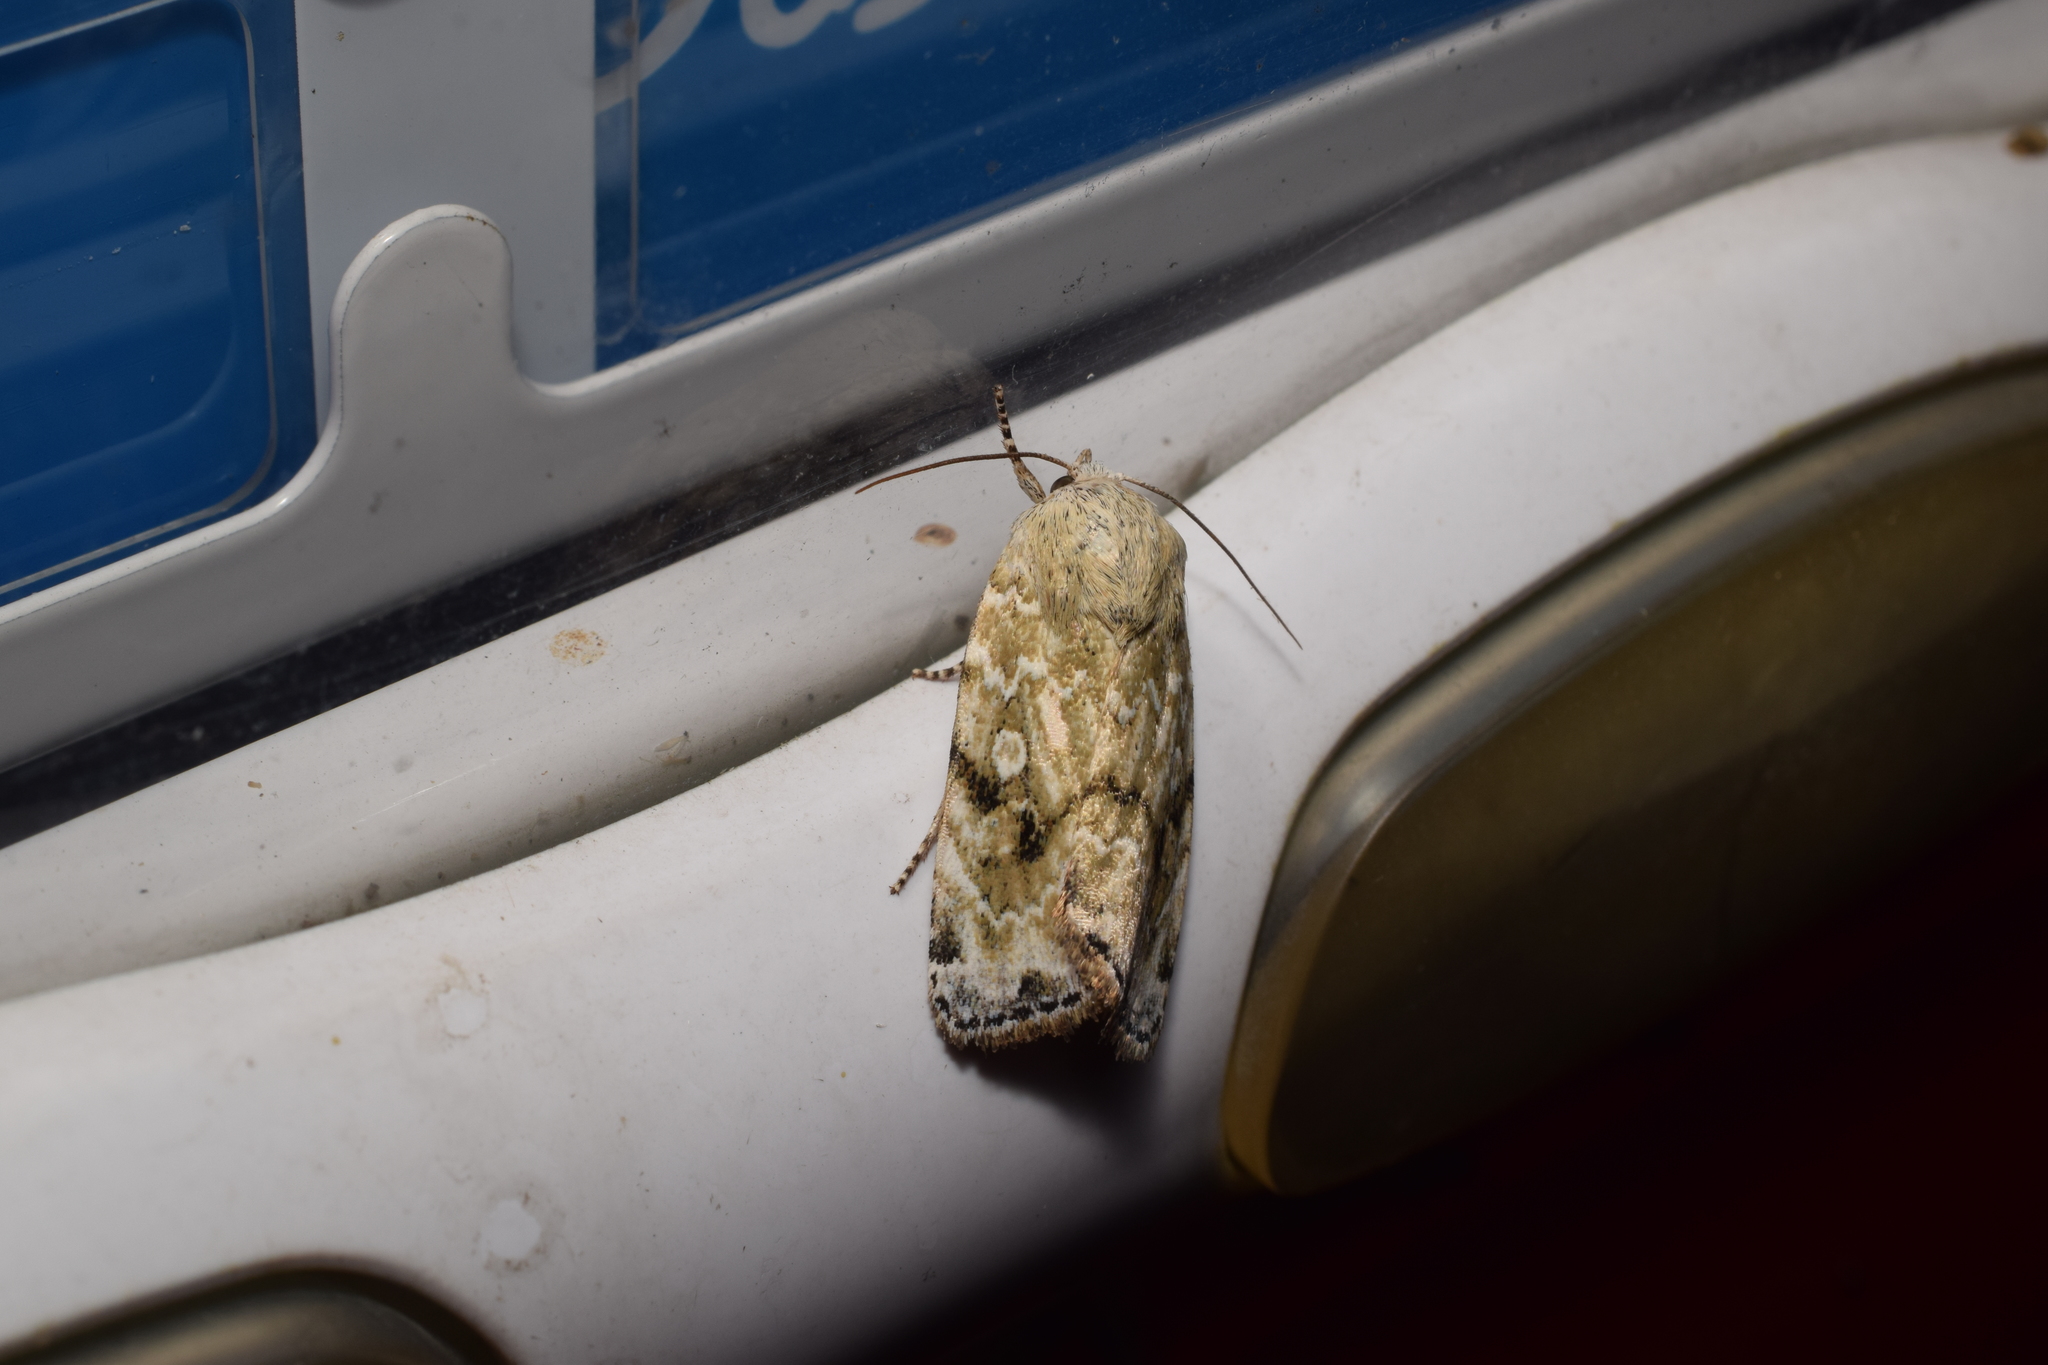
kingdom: Animalia
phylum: Arthropoda
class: Insecta
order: Lepidoptera
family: Noctuidae
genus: Cosmia
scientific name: Cosmia achatina
